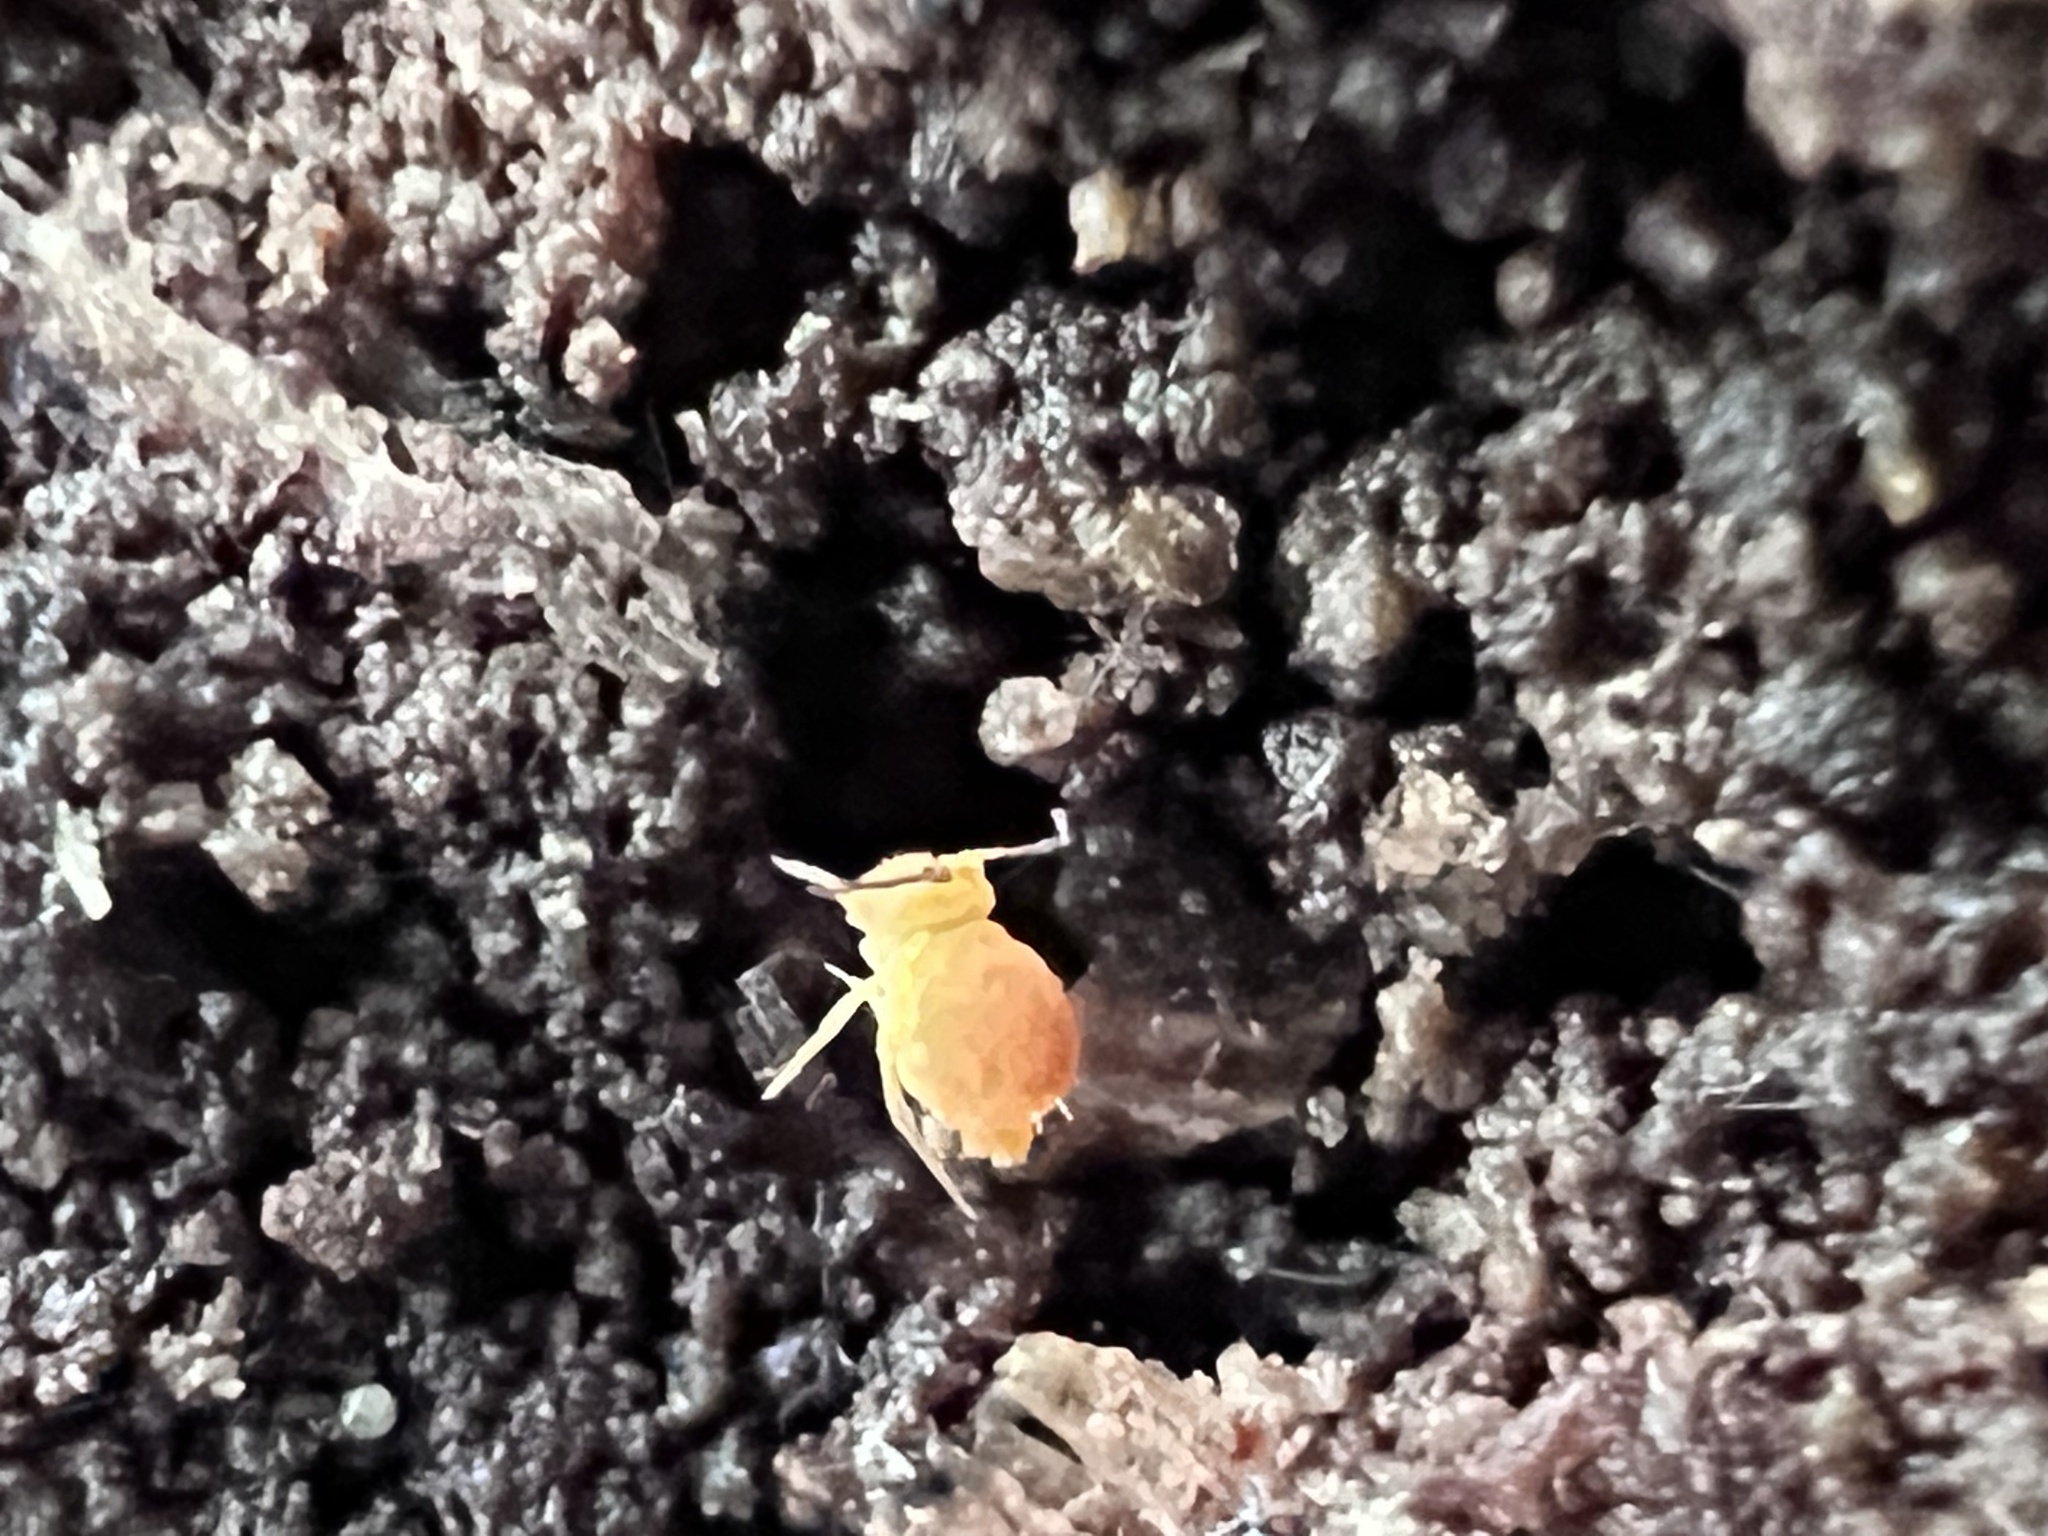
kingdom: Animalia
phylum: Arthropoda
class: Collembola
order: Symphypleona
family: Dicyrtomidae
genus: Dicyrtoma
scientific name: Dicyrtoma aurata
